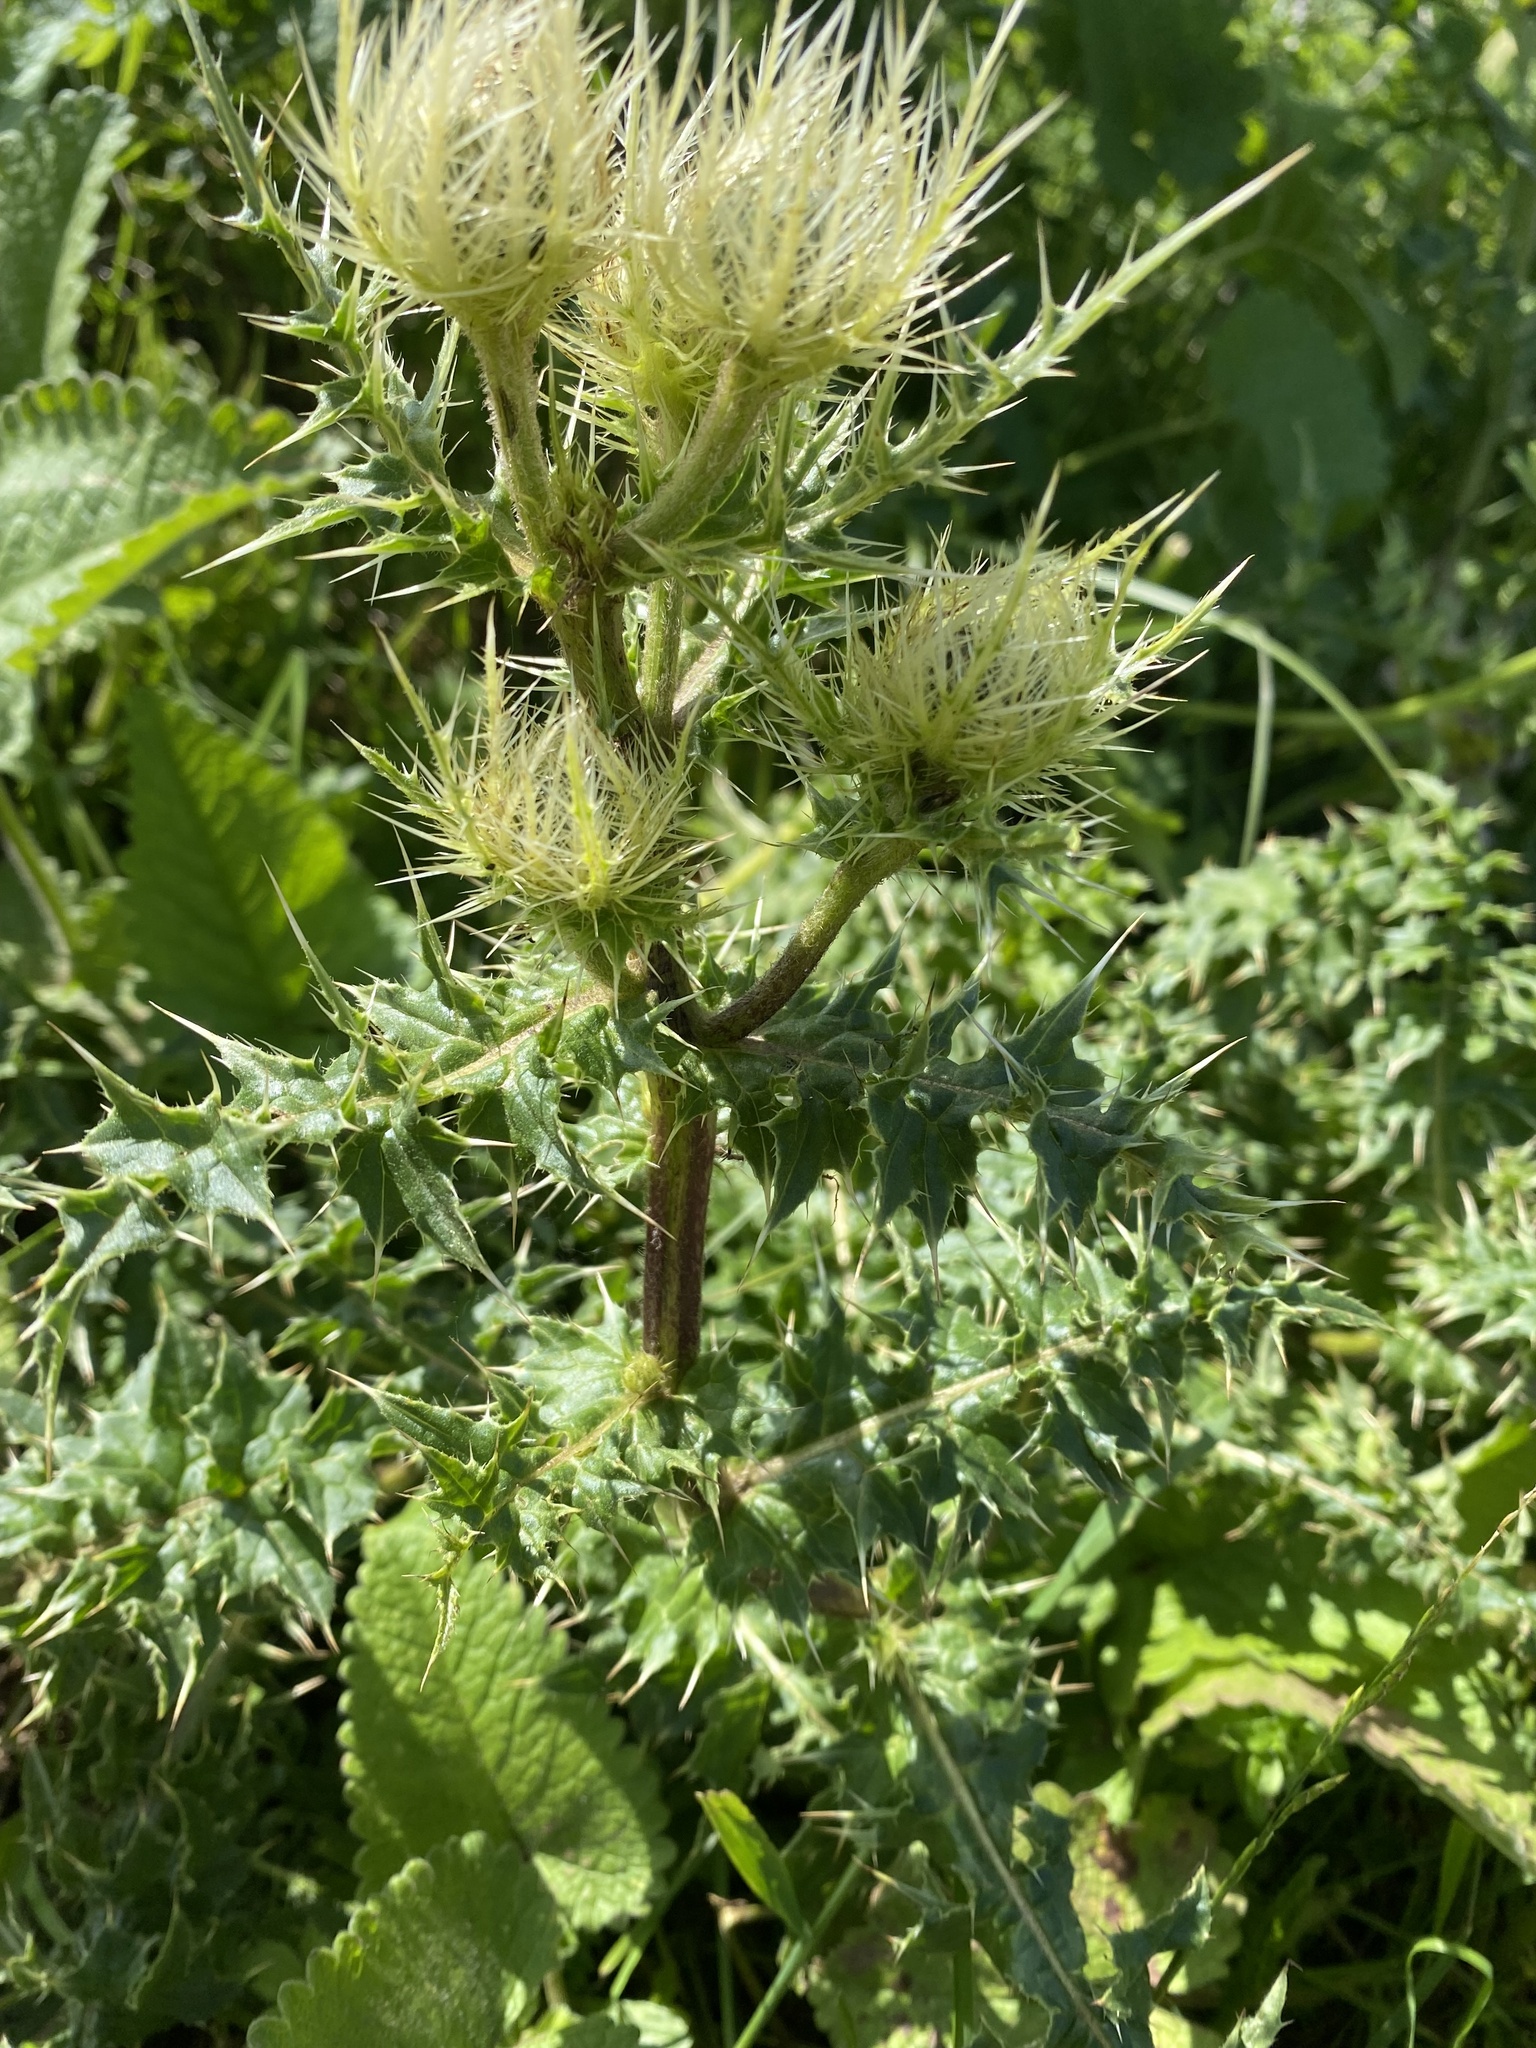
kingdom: Plantae
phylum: Tracheophyta
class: Magnoliopsida
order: Asterales
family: Asteraceae
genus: Cirsium
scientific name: Cirsium obvallatum
